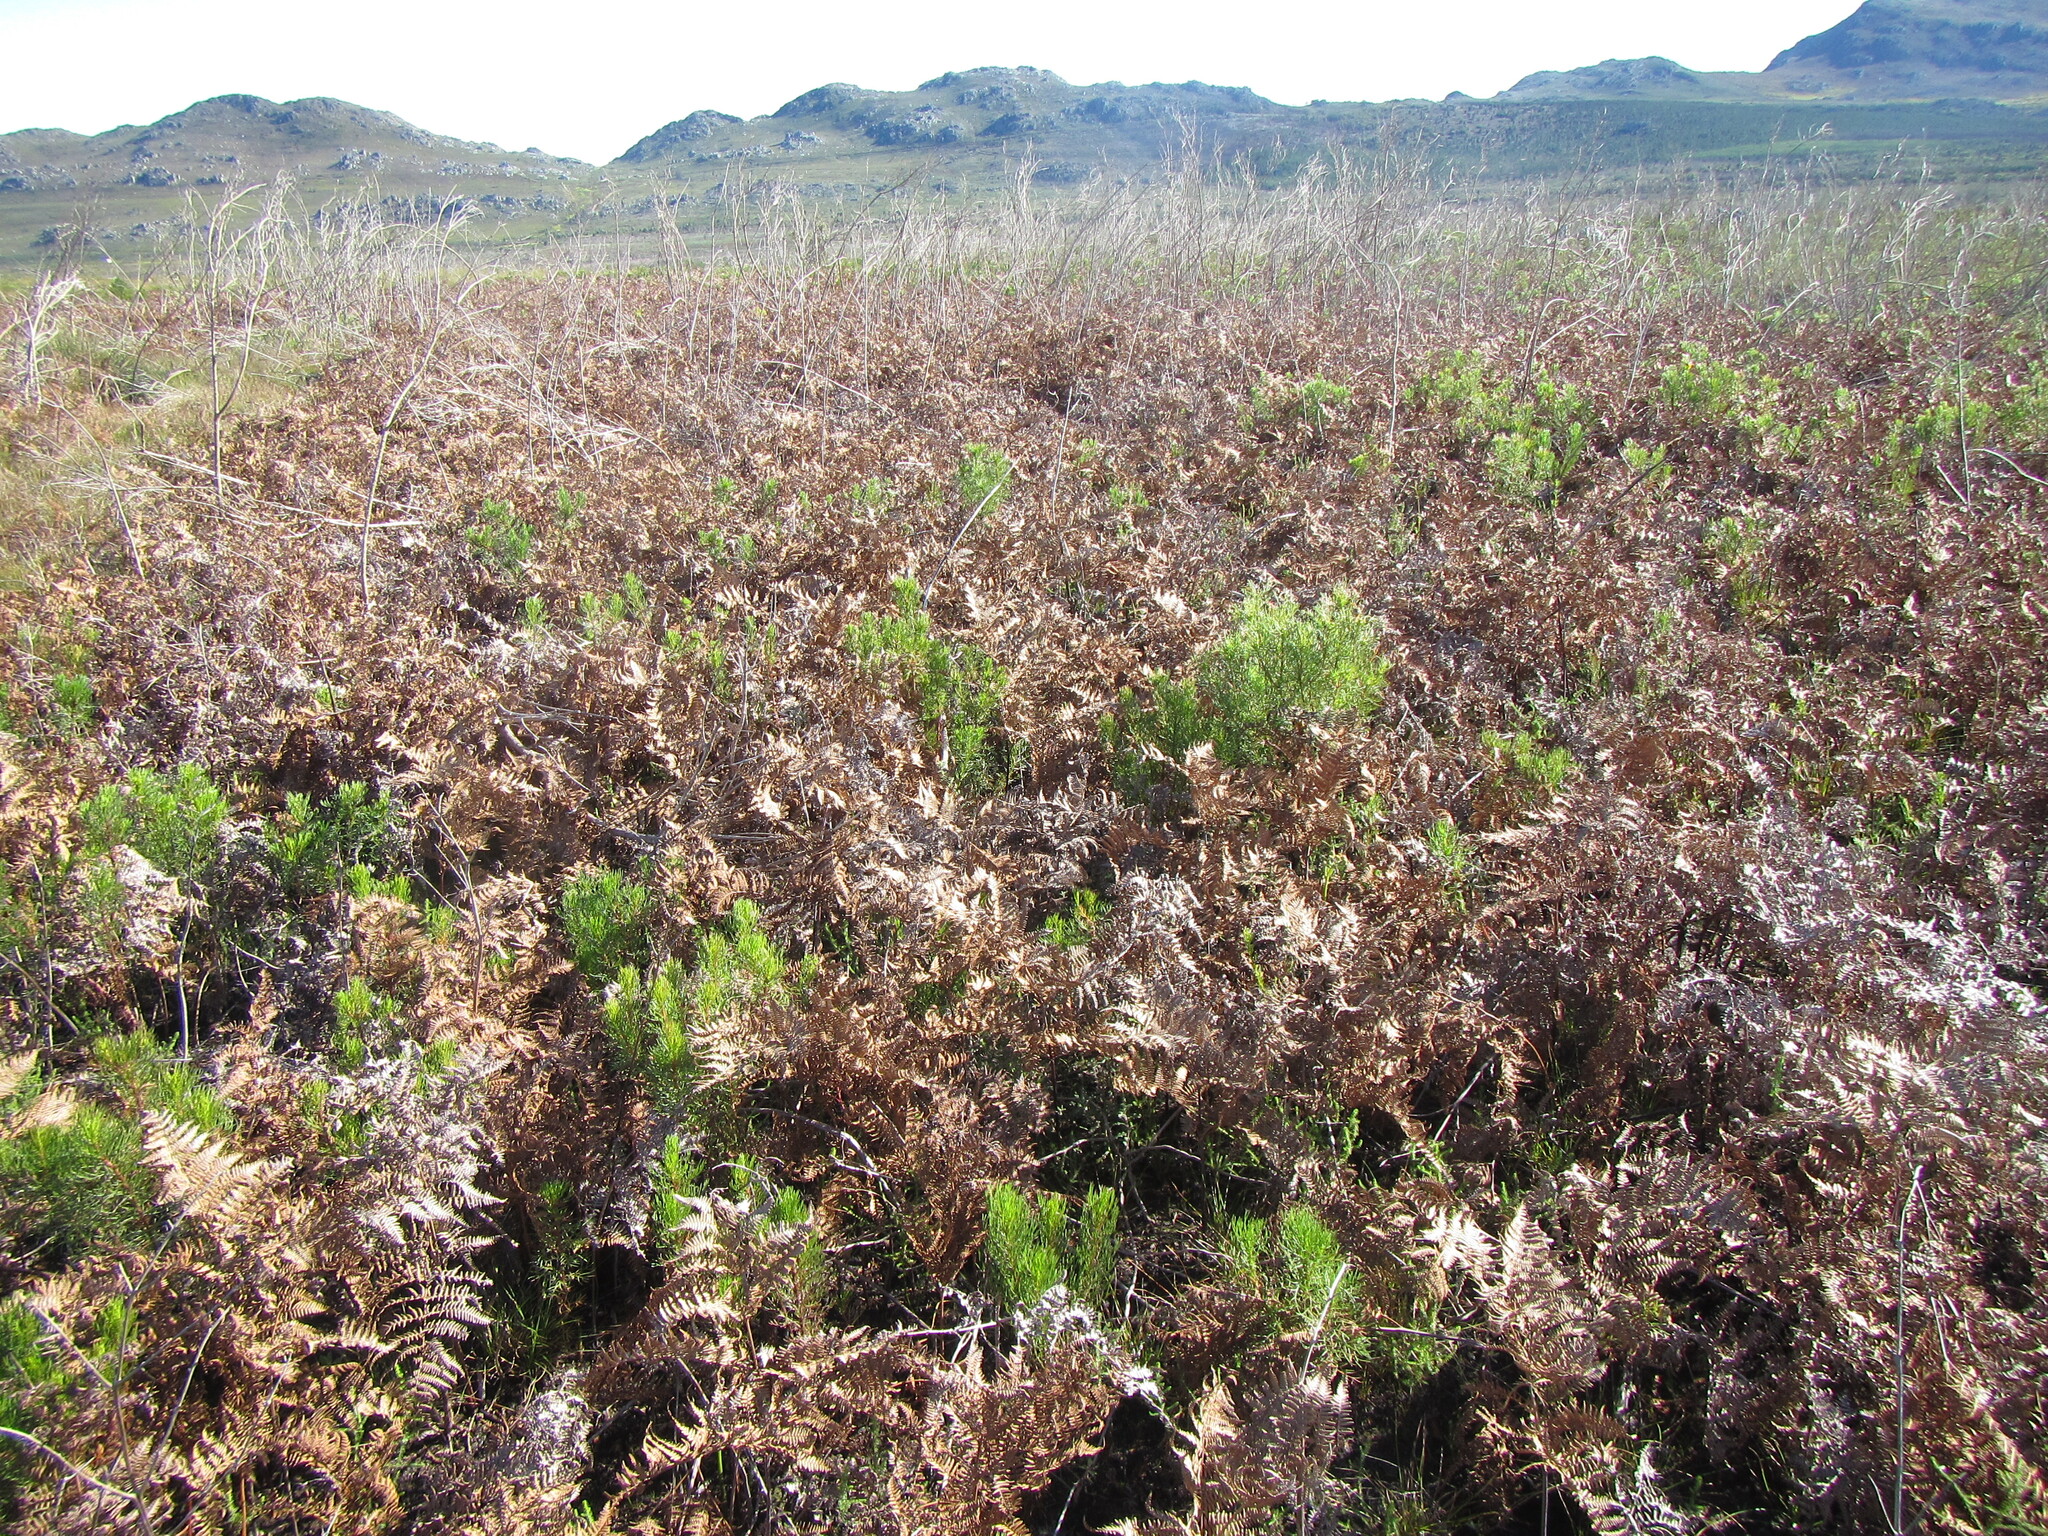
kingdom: Plantae
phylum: Tracheophyta
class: Polypodiopsida
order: Polypodiales
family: Dennstaedtiaceae
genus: Pteridium
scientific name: Pteridium aquilinum
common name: Bracken
